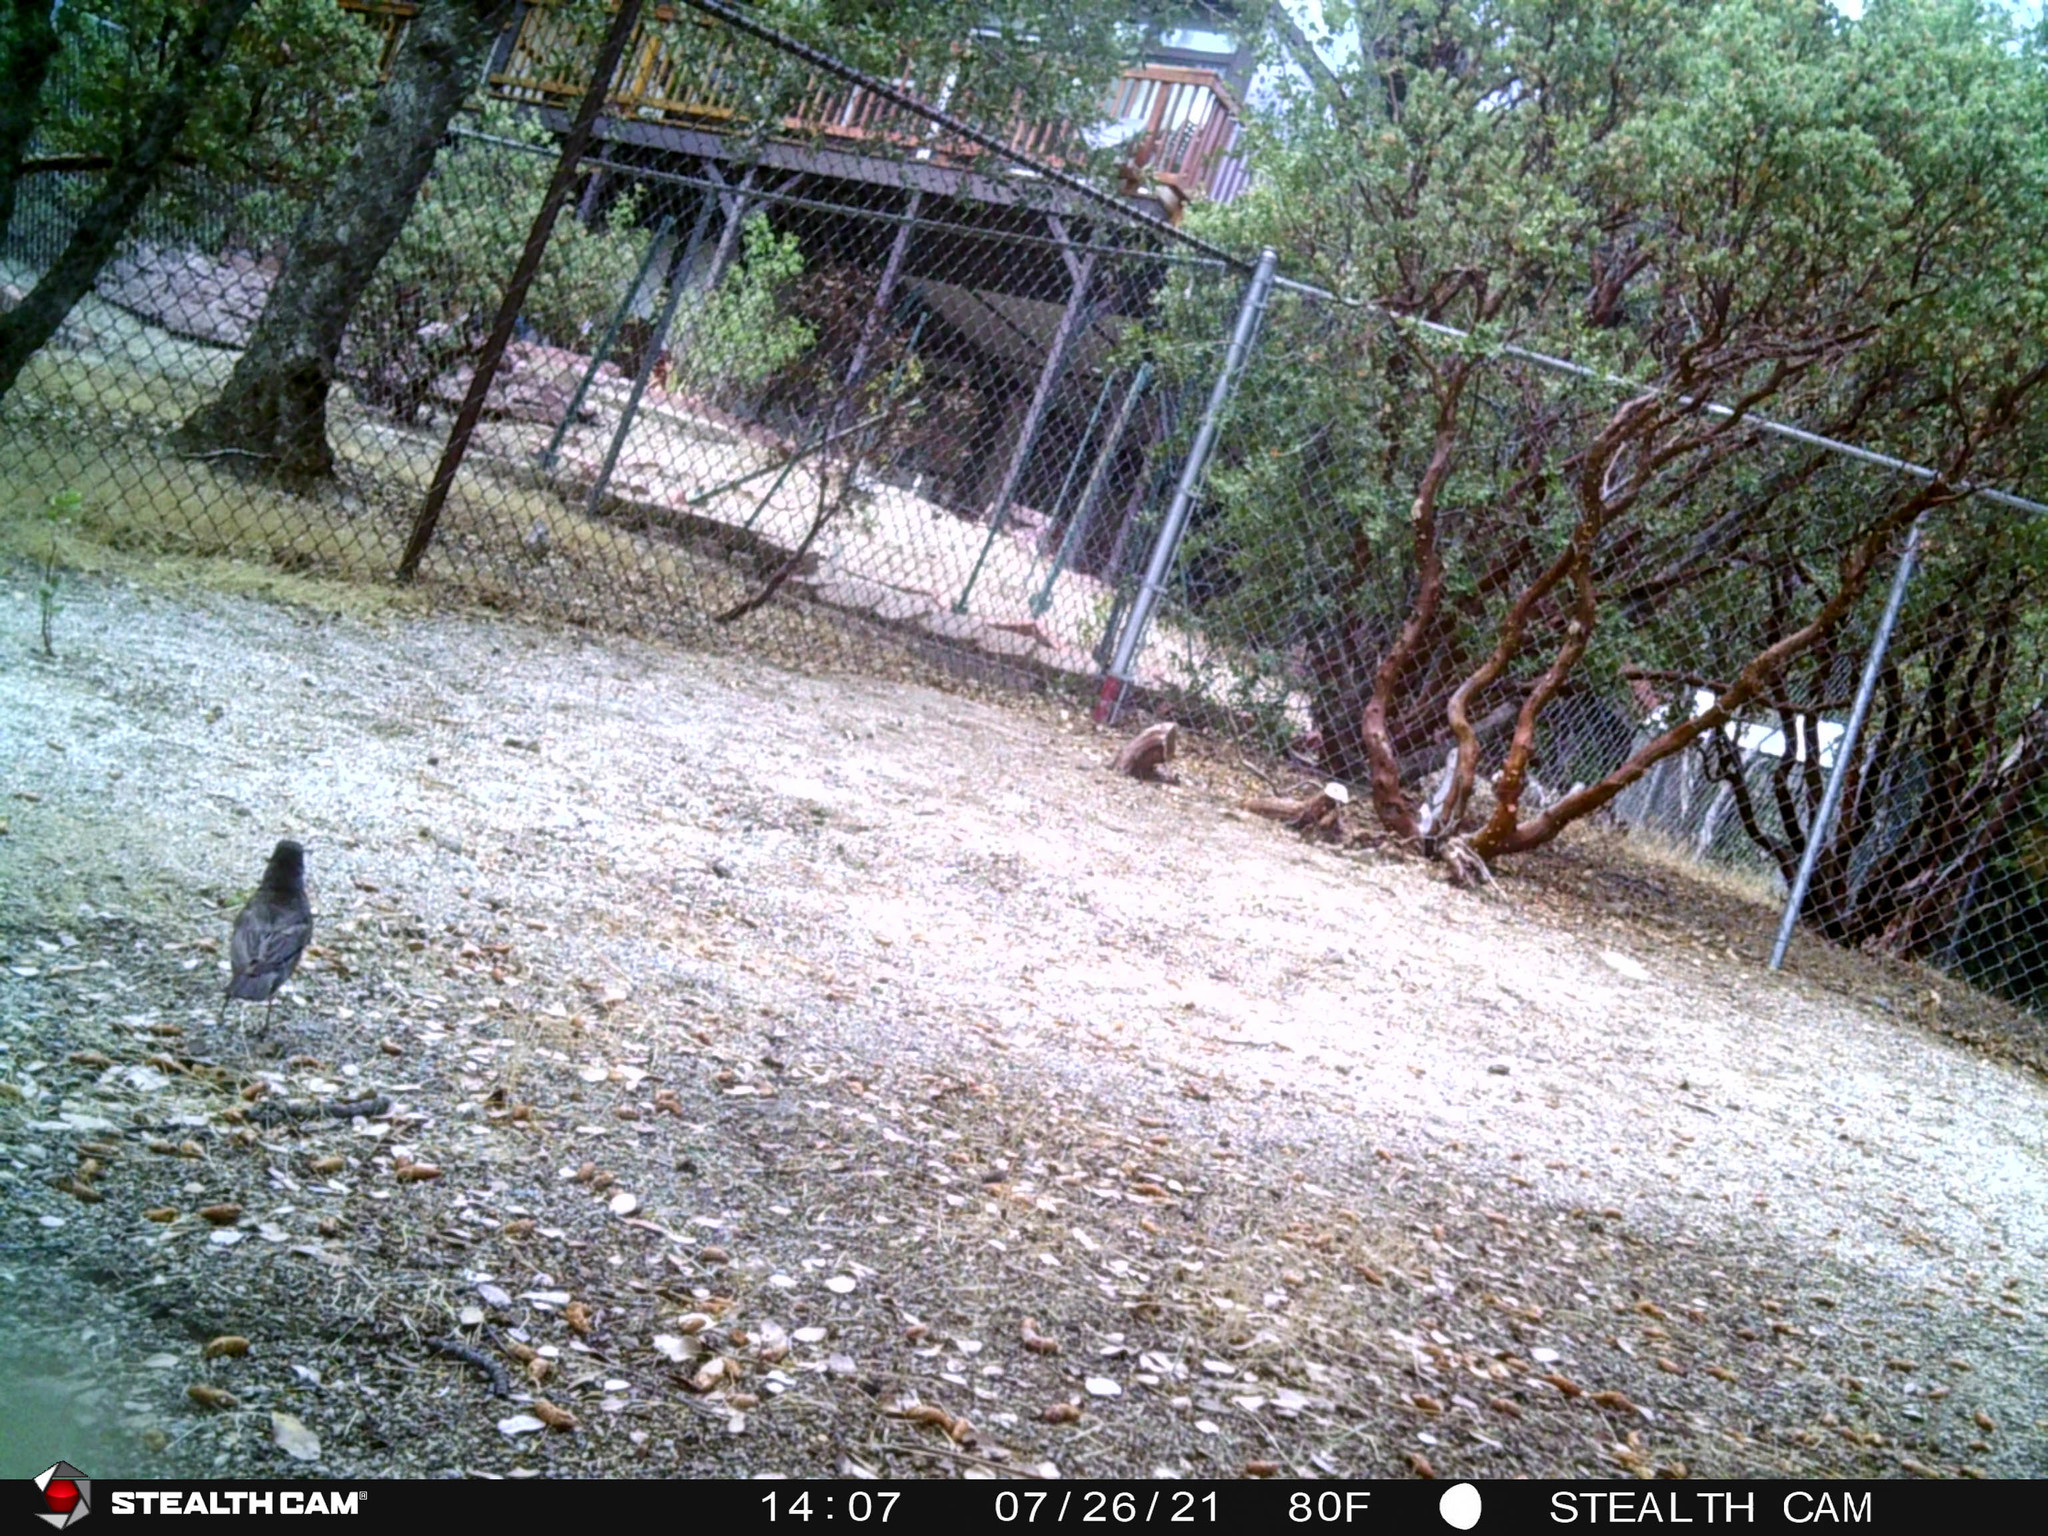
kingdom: Animalia
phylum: Chordata
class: Aves
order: Passeriformes
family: Corvidae
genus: Cyanocitta
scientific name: Cyanocitta stelleri
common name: Steller's jay
